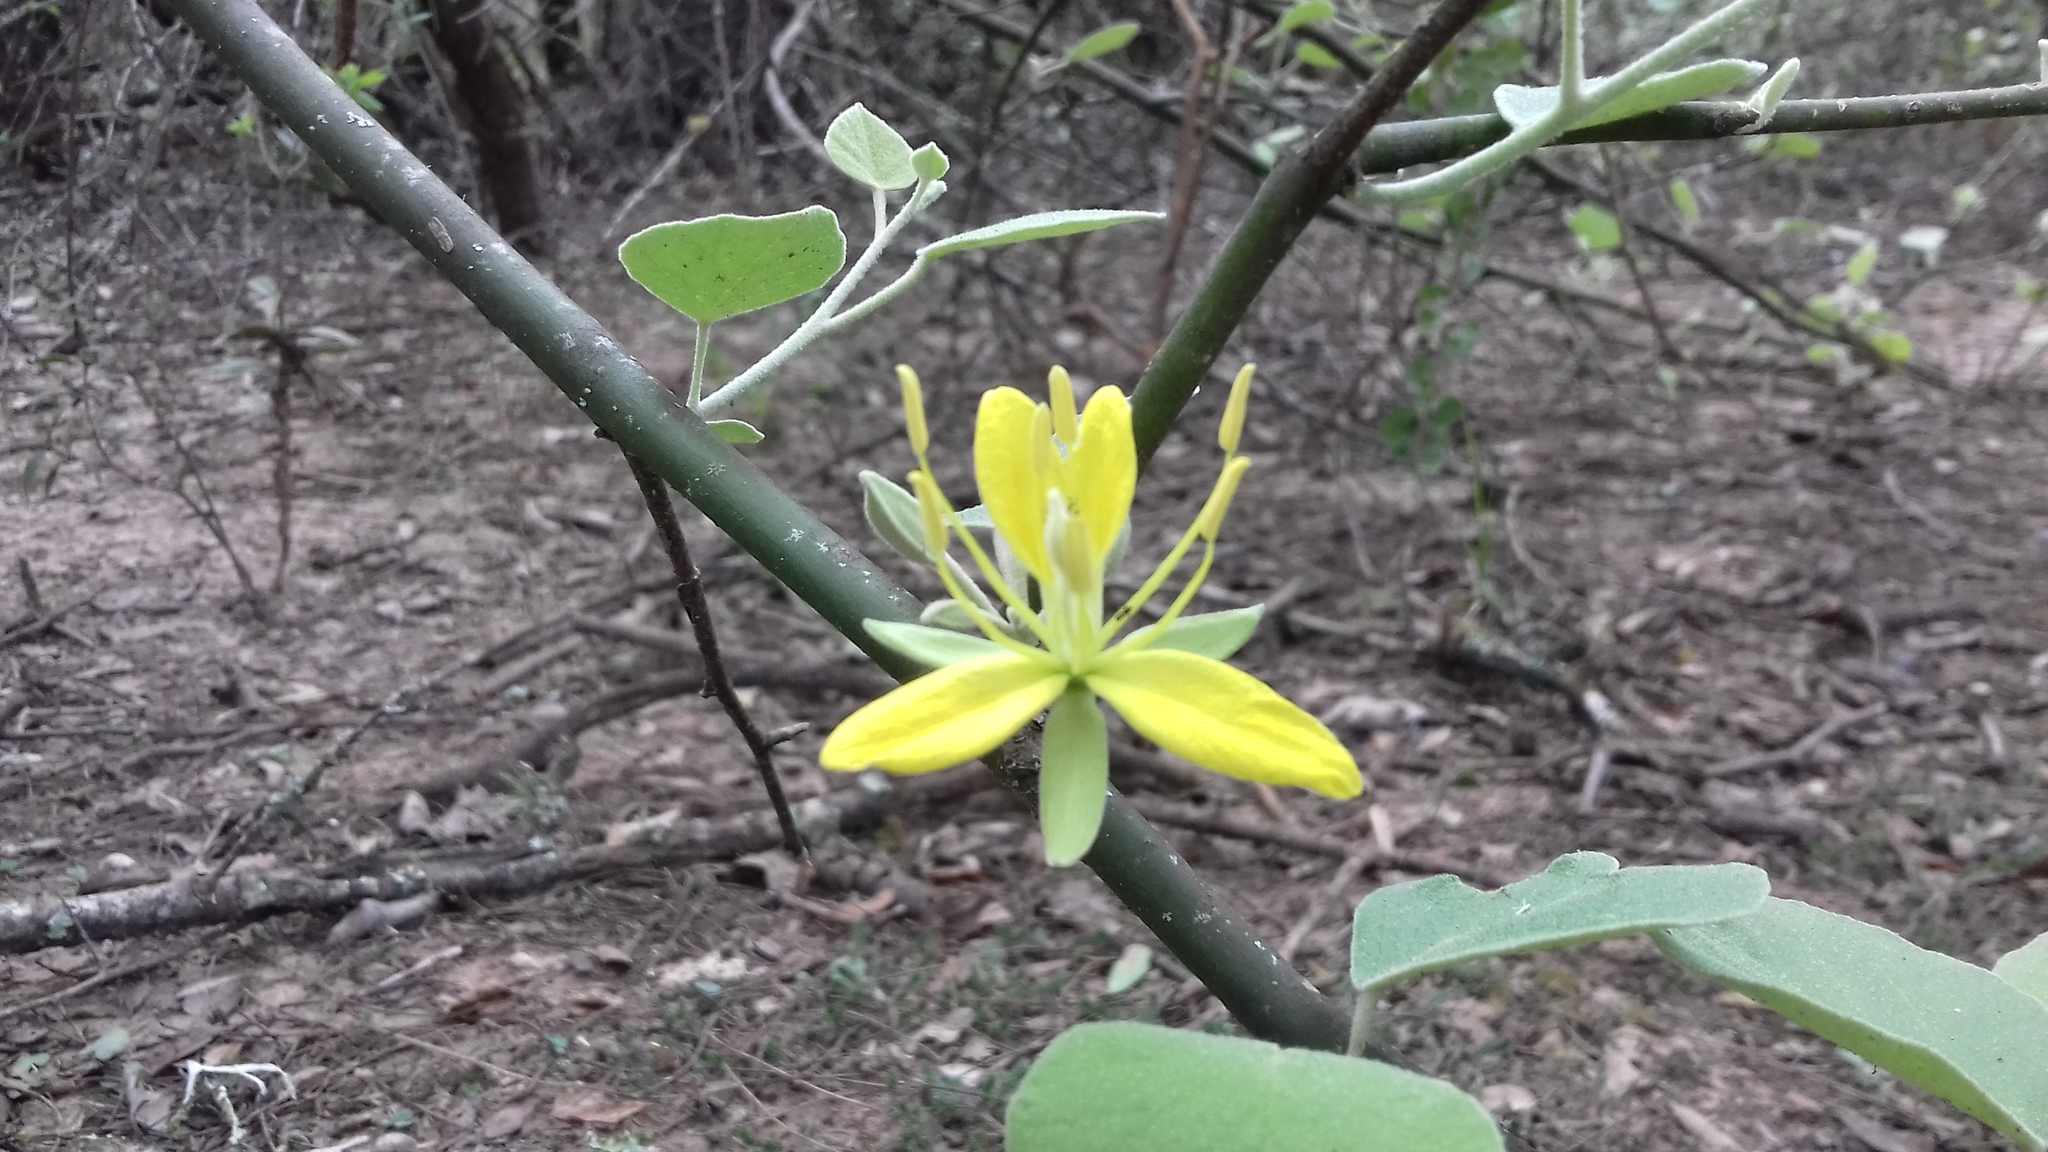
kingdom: Plantae
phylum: Tracheophyta
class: Magnoliopsida
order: Brassicales
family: Capparaceae
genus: Capparicordis
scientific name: Capparicordis tweedieana
